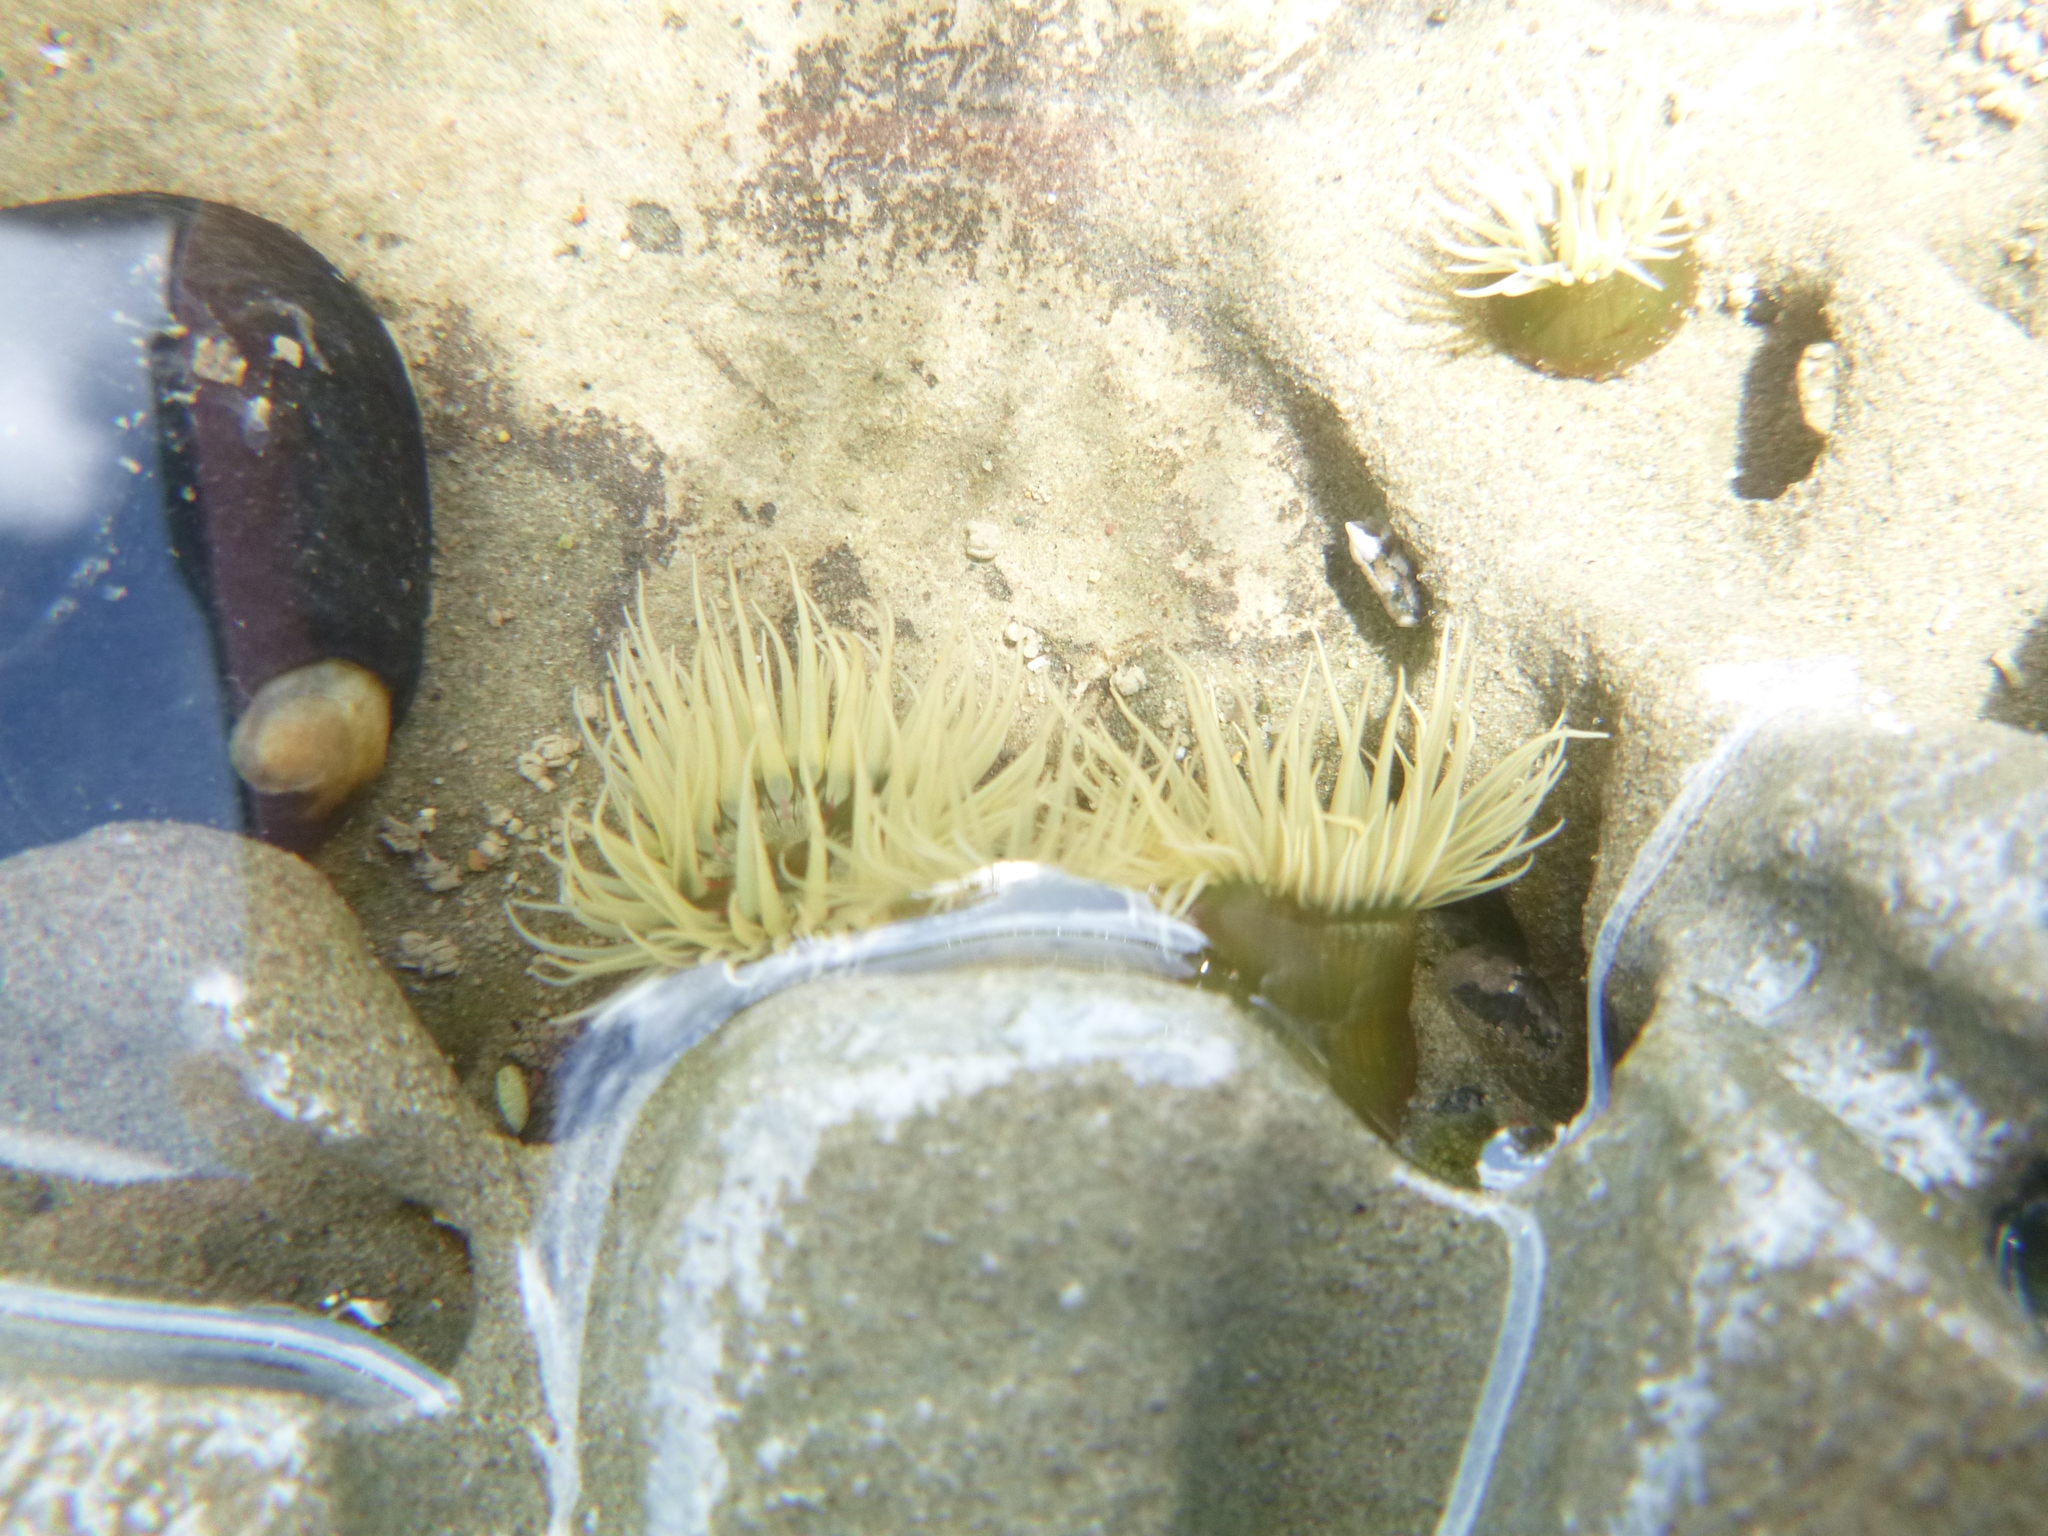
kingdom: Animalia
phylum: Cnidaria
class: Anthozoa
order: Actiniaria
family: Diadumenidae
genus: Diadumene
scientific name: Diadumene lineata
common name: Orange-striped anemone
